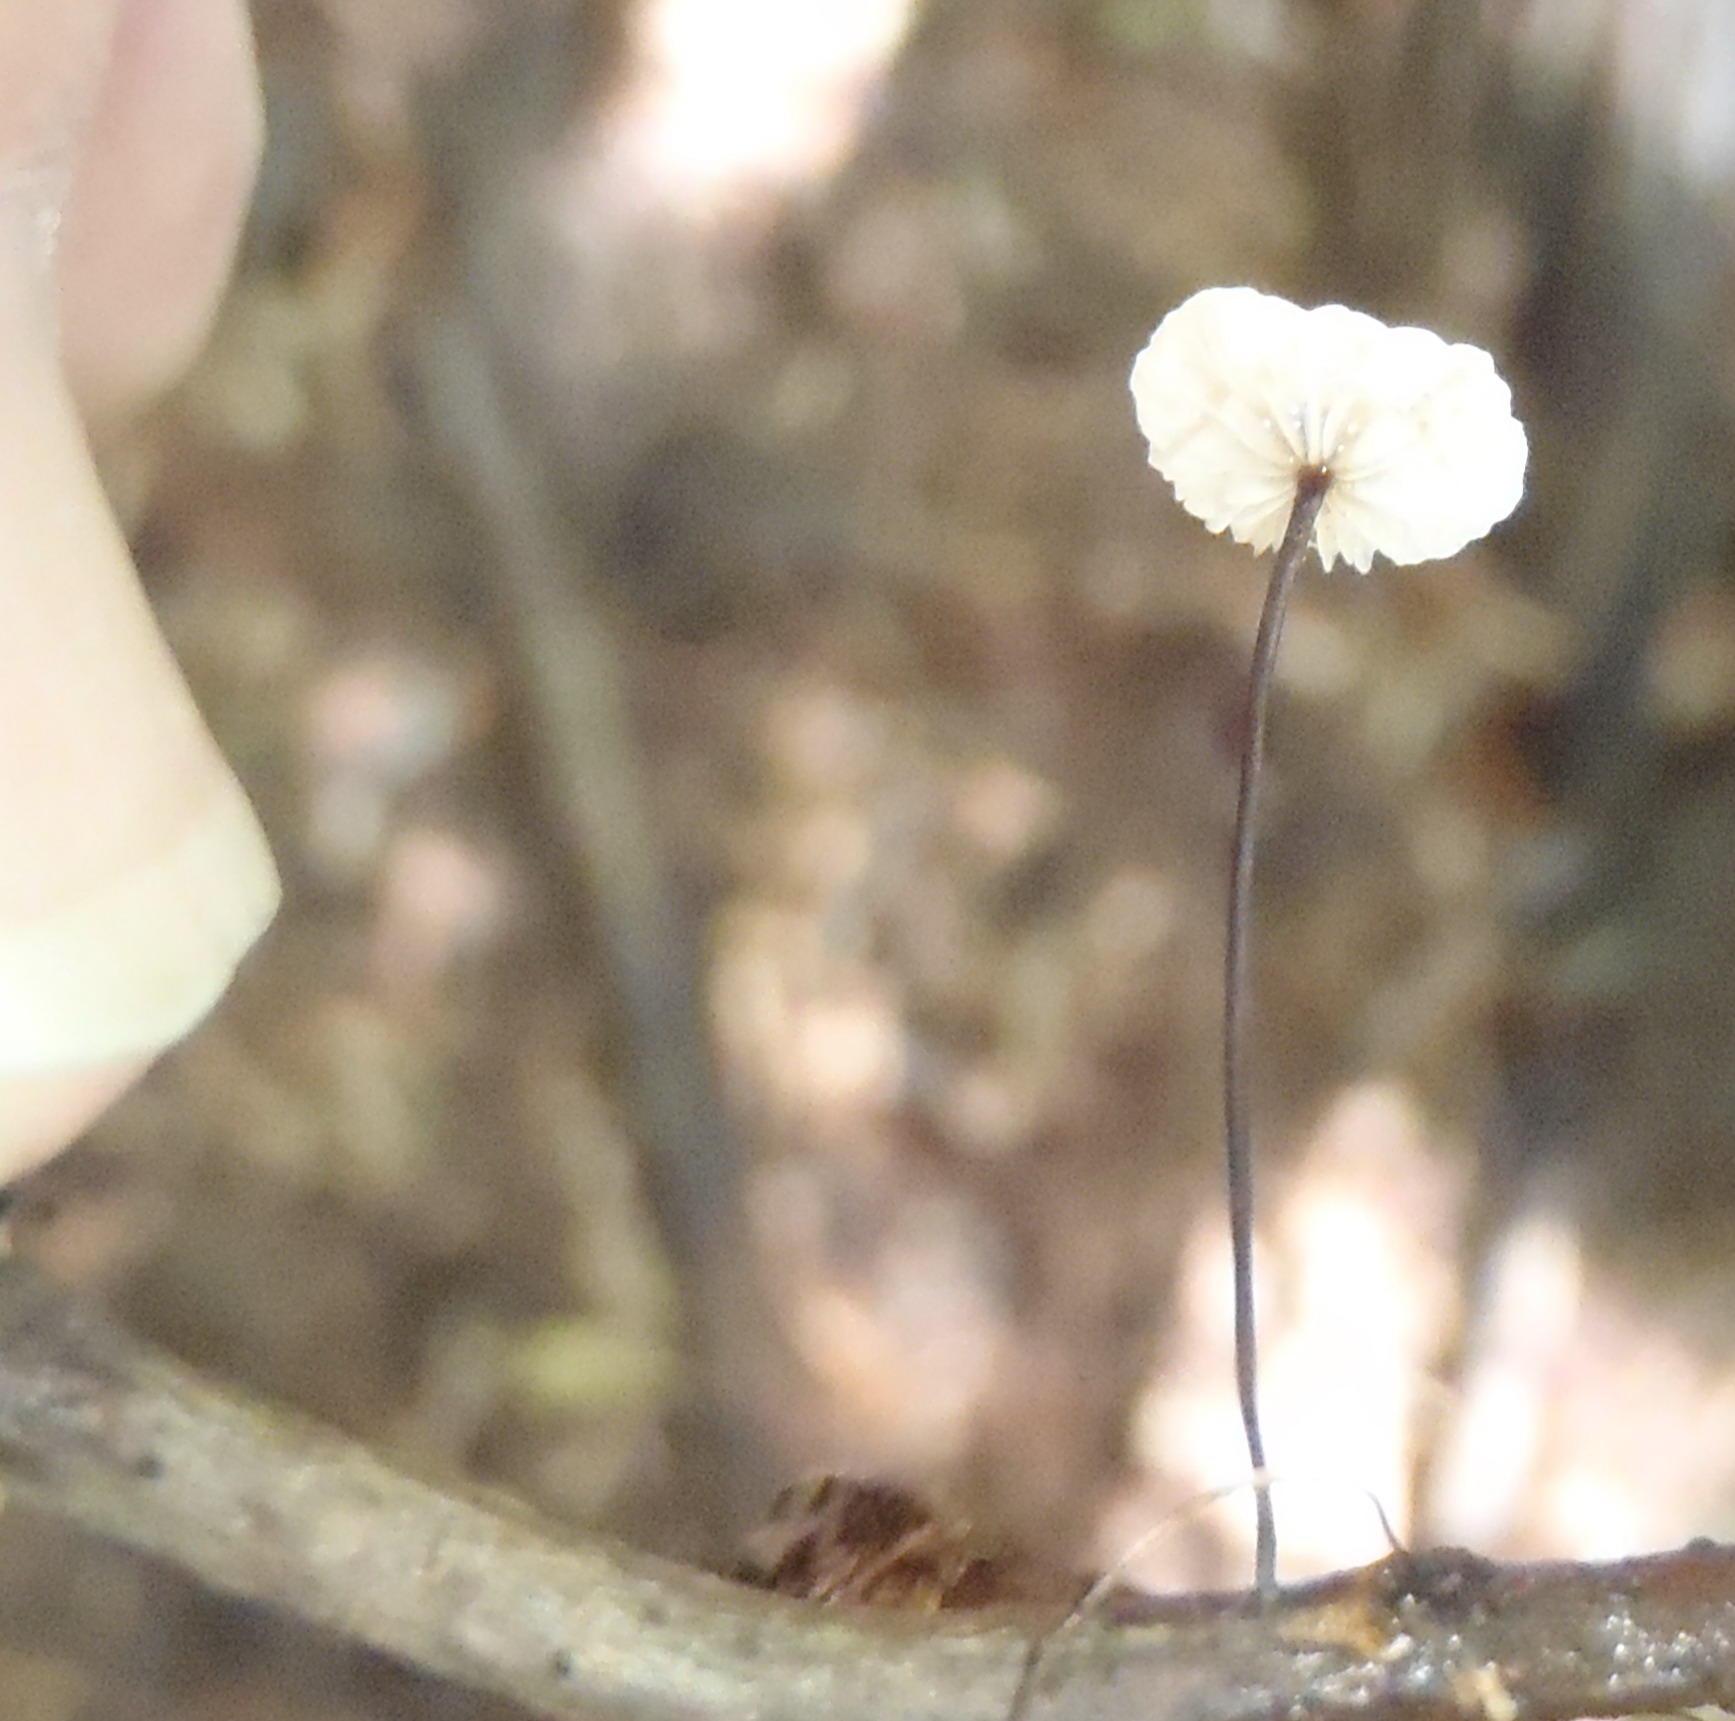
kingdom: Fungi
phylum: Basidiomycota
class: Agaricomycetes
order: Agaricales
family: Omphalotaceae
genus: Gymnopus
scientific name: Gymnopus androsaceus
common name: Horse-hair fungus
